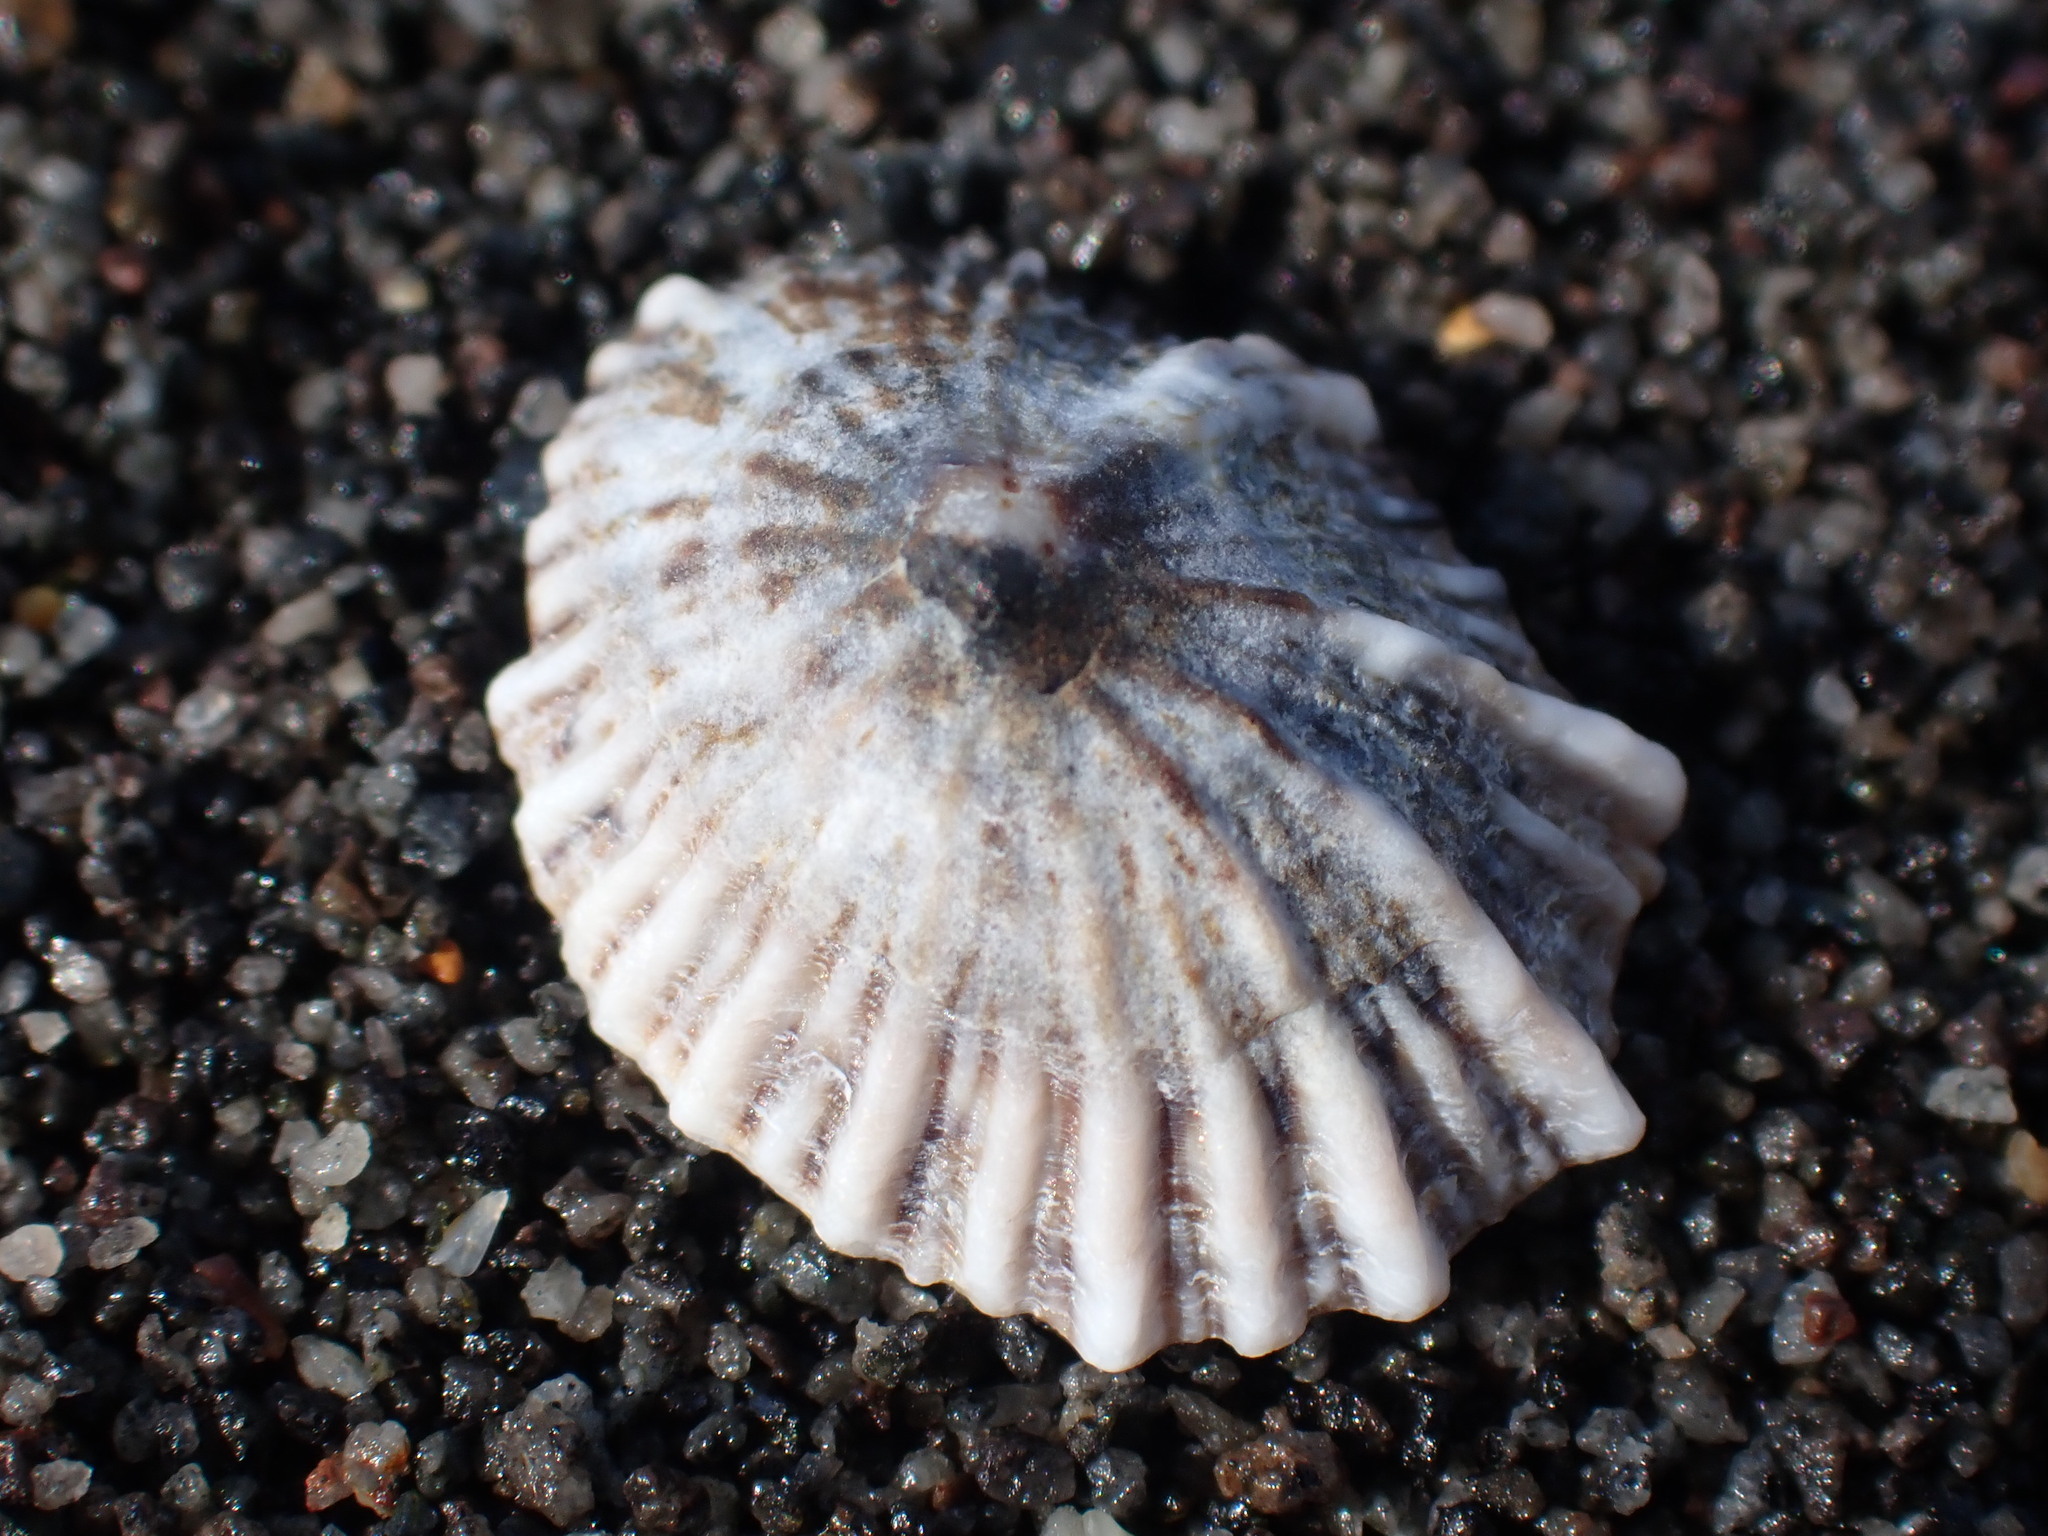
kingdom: Animalia
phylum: Mollusca
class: Gastropoda
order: Siphonariida
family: Siphonariidae
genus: Siphonaria
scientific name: Siphonaria australis
